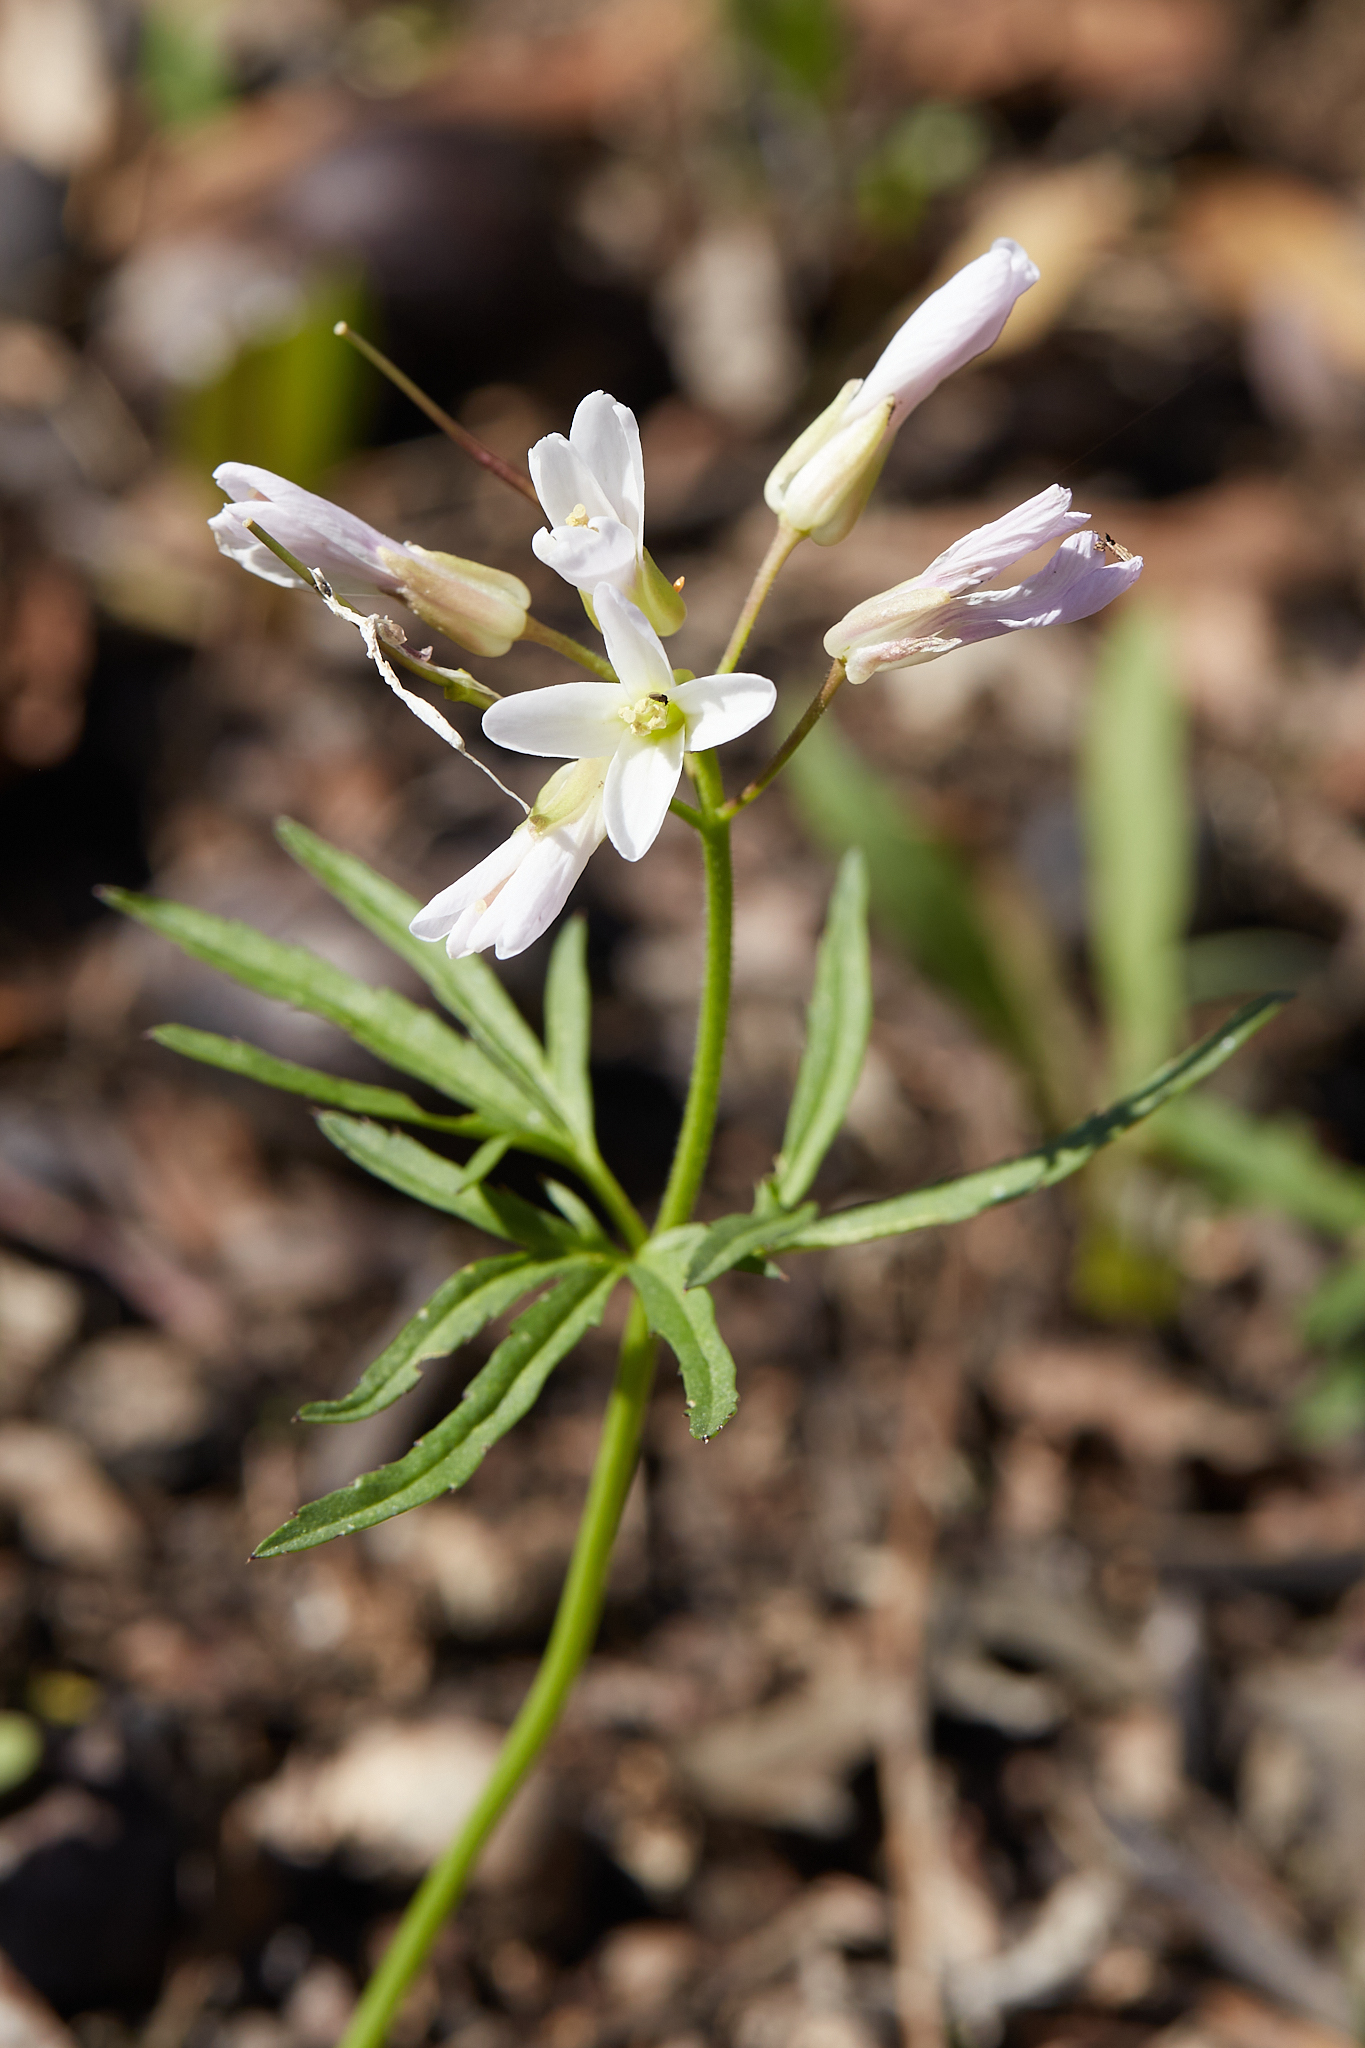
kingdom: Plantae
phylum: Tracheophyta
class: Magnoliopsida
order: Brassicales
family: Brassicaceae
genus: Cardamine
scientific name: Cardamine concatenata
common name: Cut-leaf toothcup
